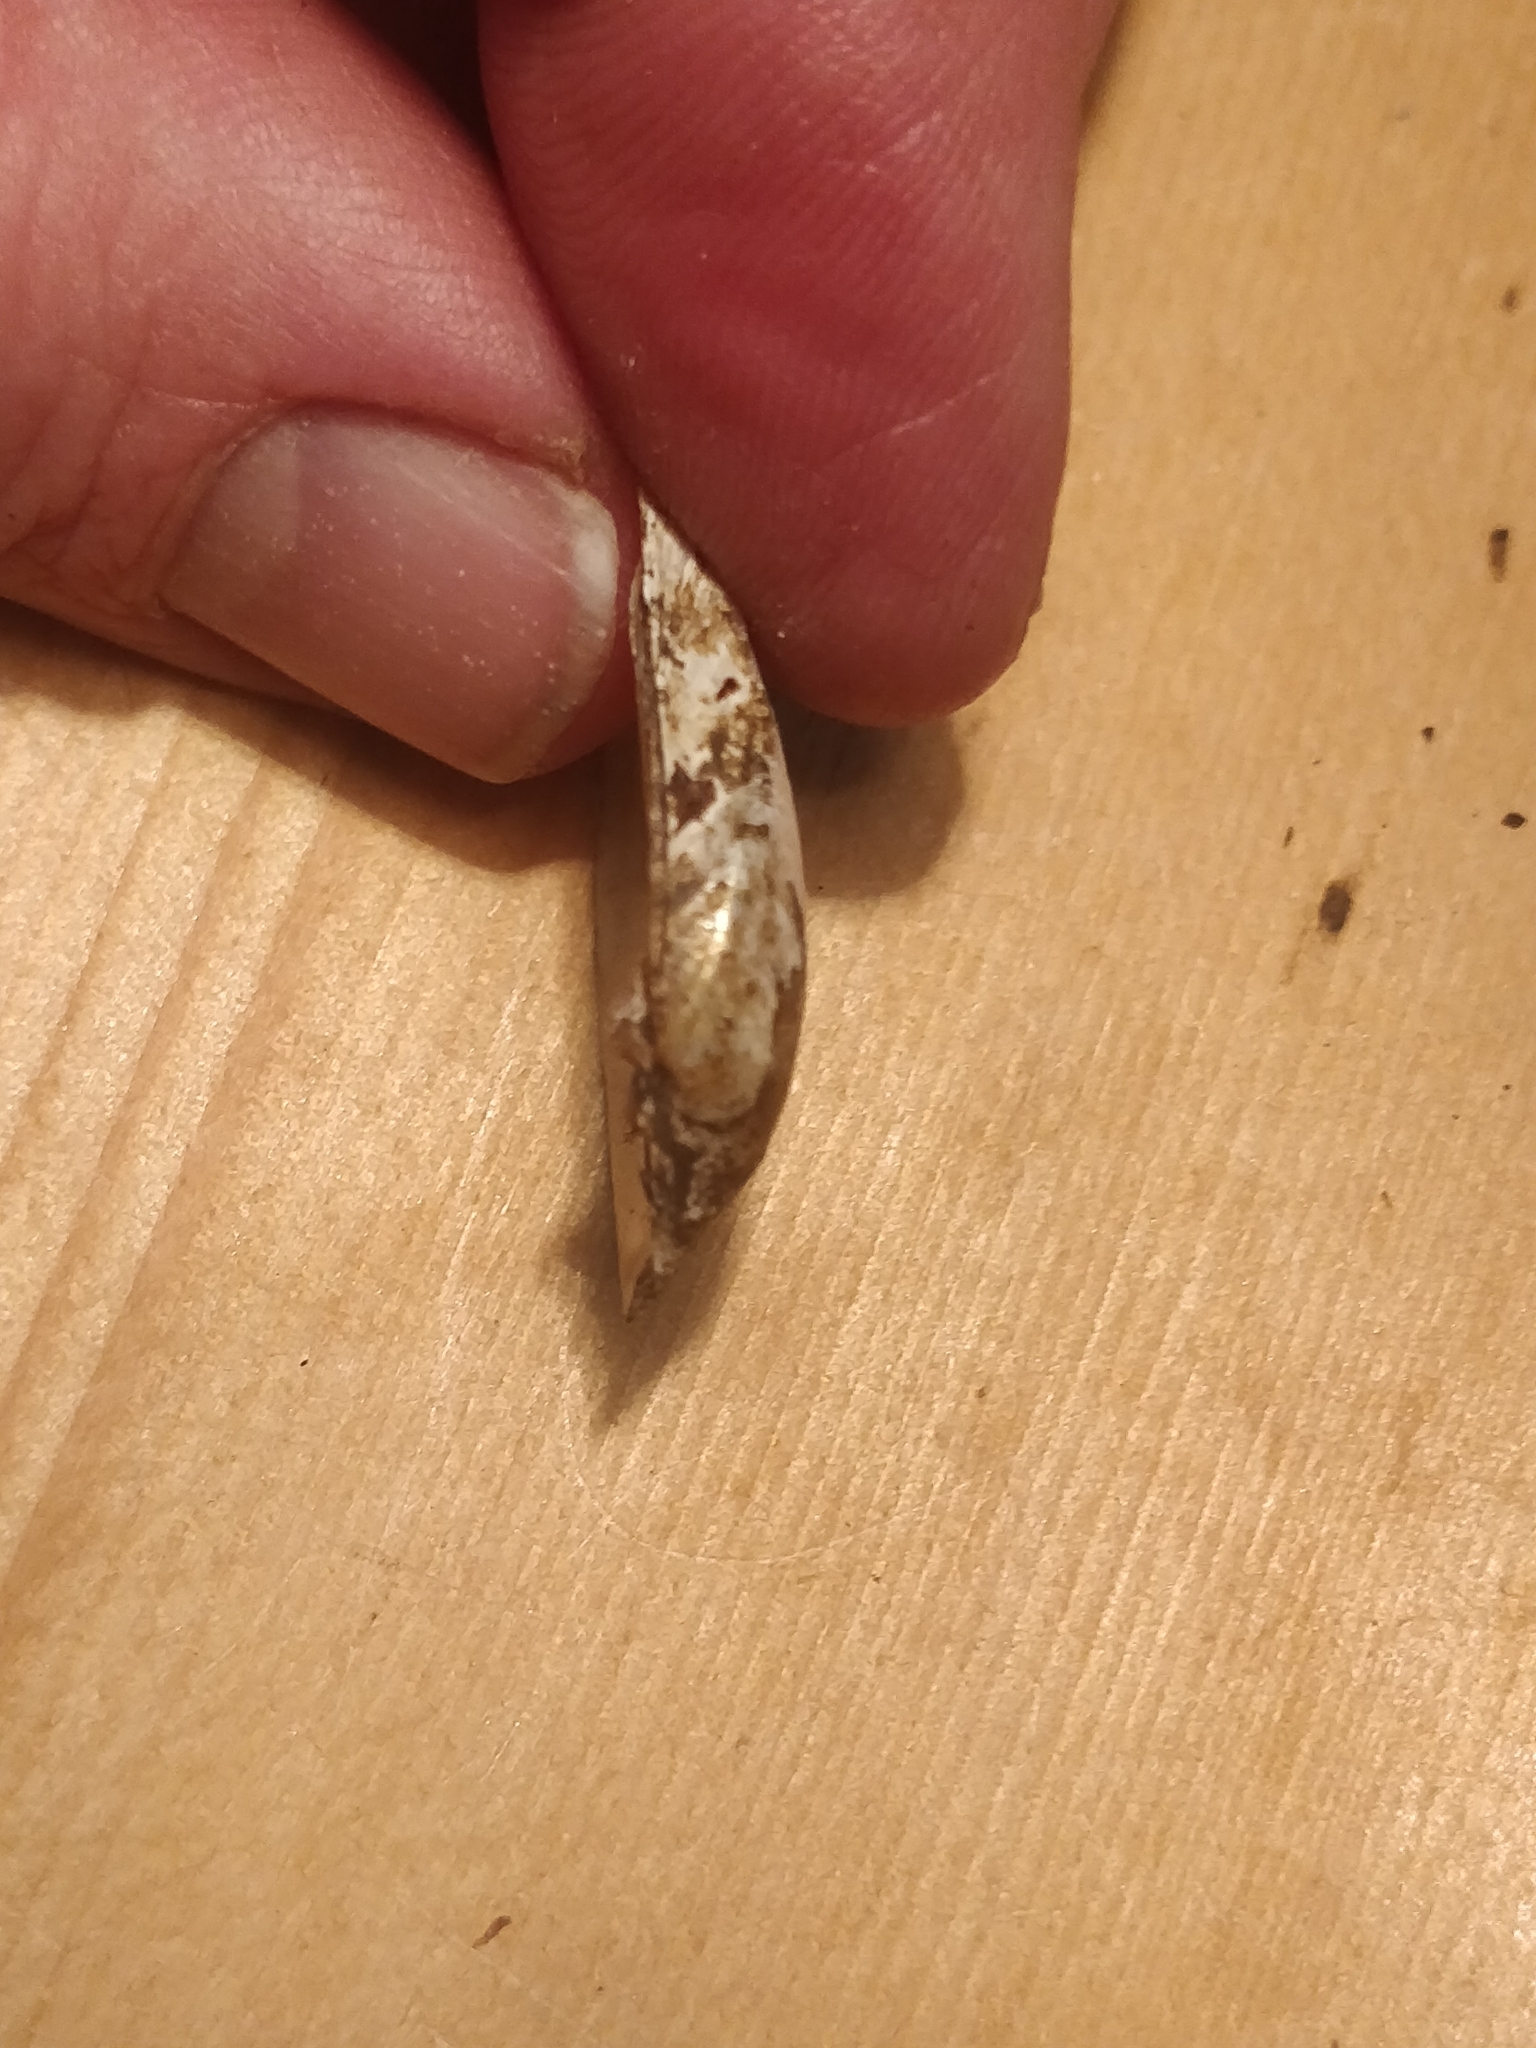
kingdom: Animalia
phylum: Mollusca
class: Bivalvia
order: Unionida
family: Unionidae
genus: Truncilla
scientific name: Truncilla donaciformis
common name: Fawnsfoot
